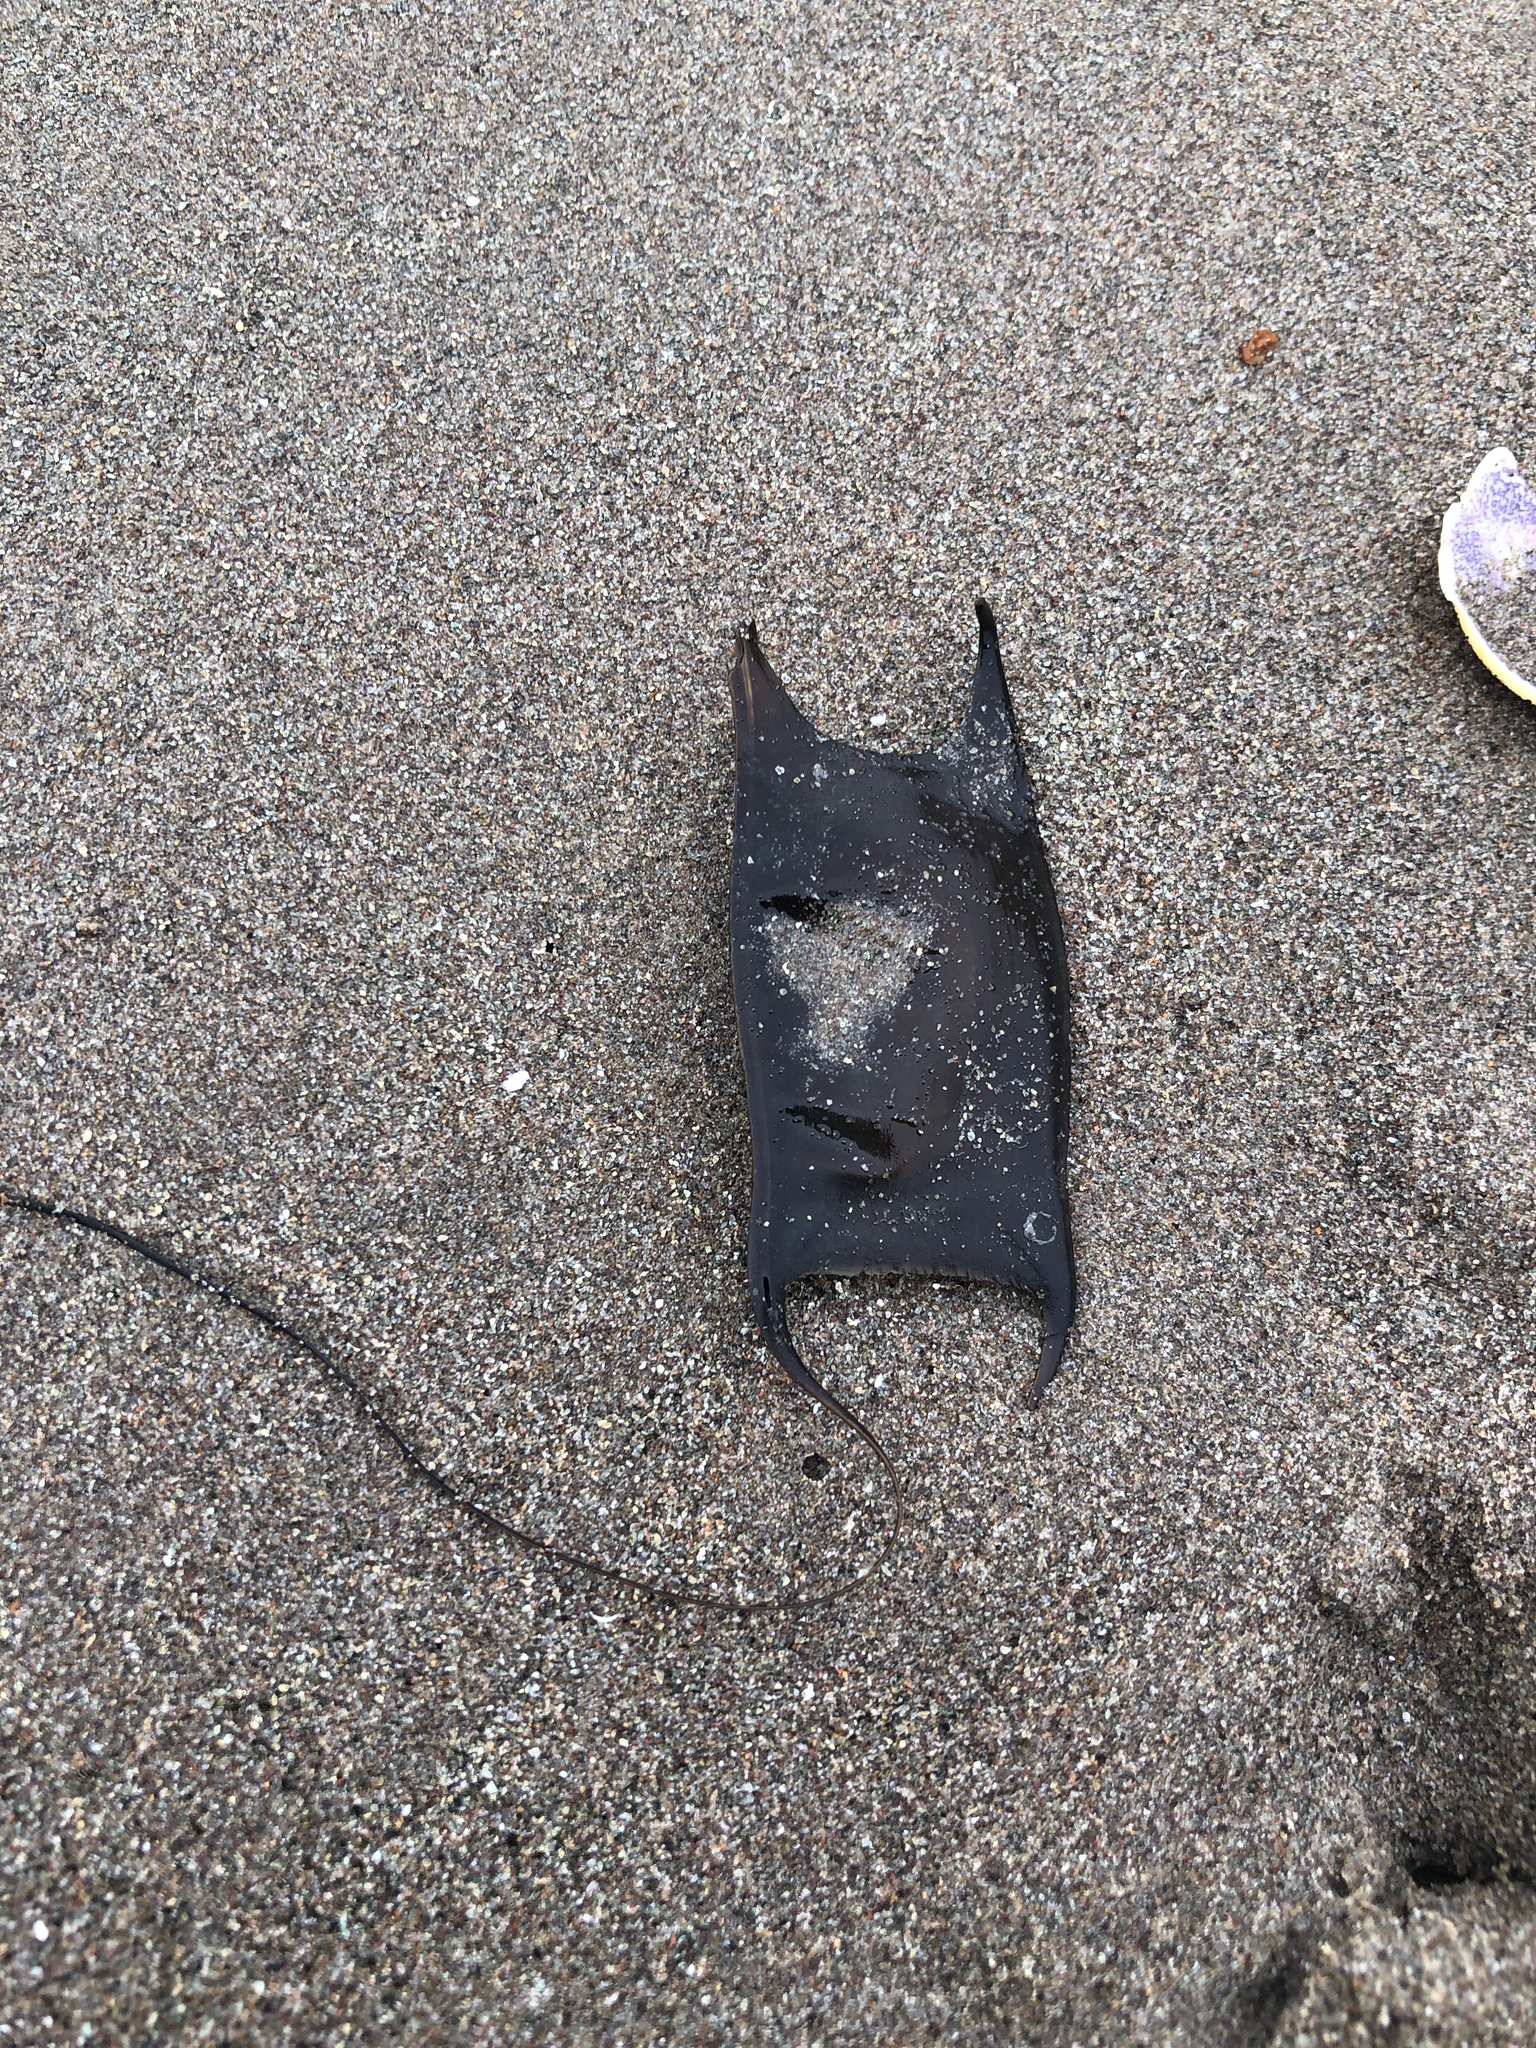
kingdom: Animalia
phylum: Chordata
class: Elasmobranchii
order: Rajiformes
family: Arhynchobatidae
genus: Sympterygia
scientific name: Sympterygia brevicaudata
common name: Shorttail fanskate
